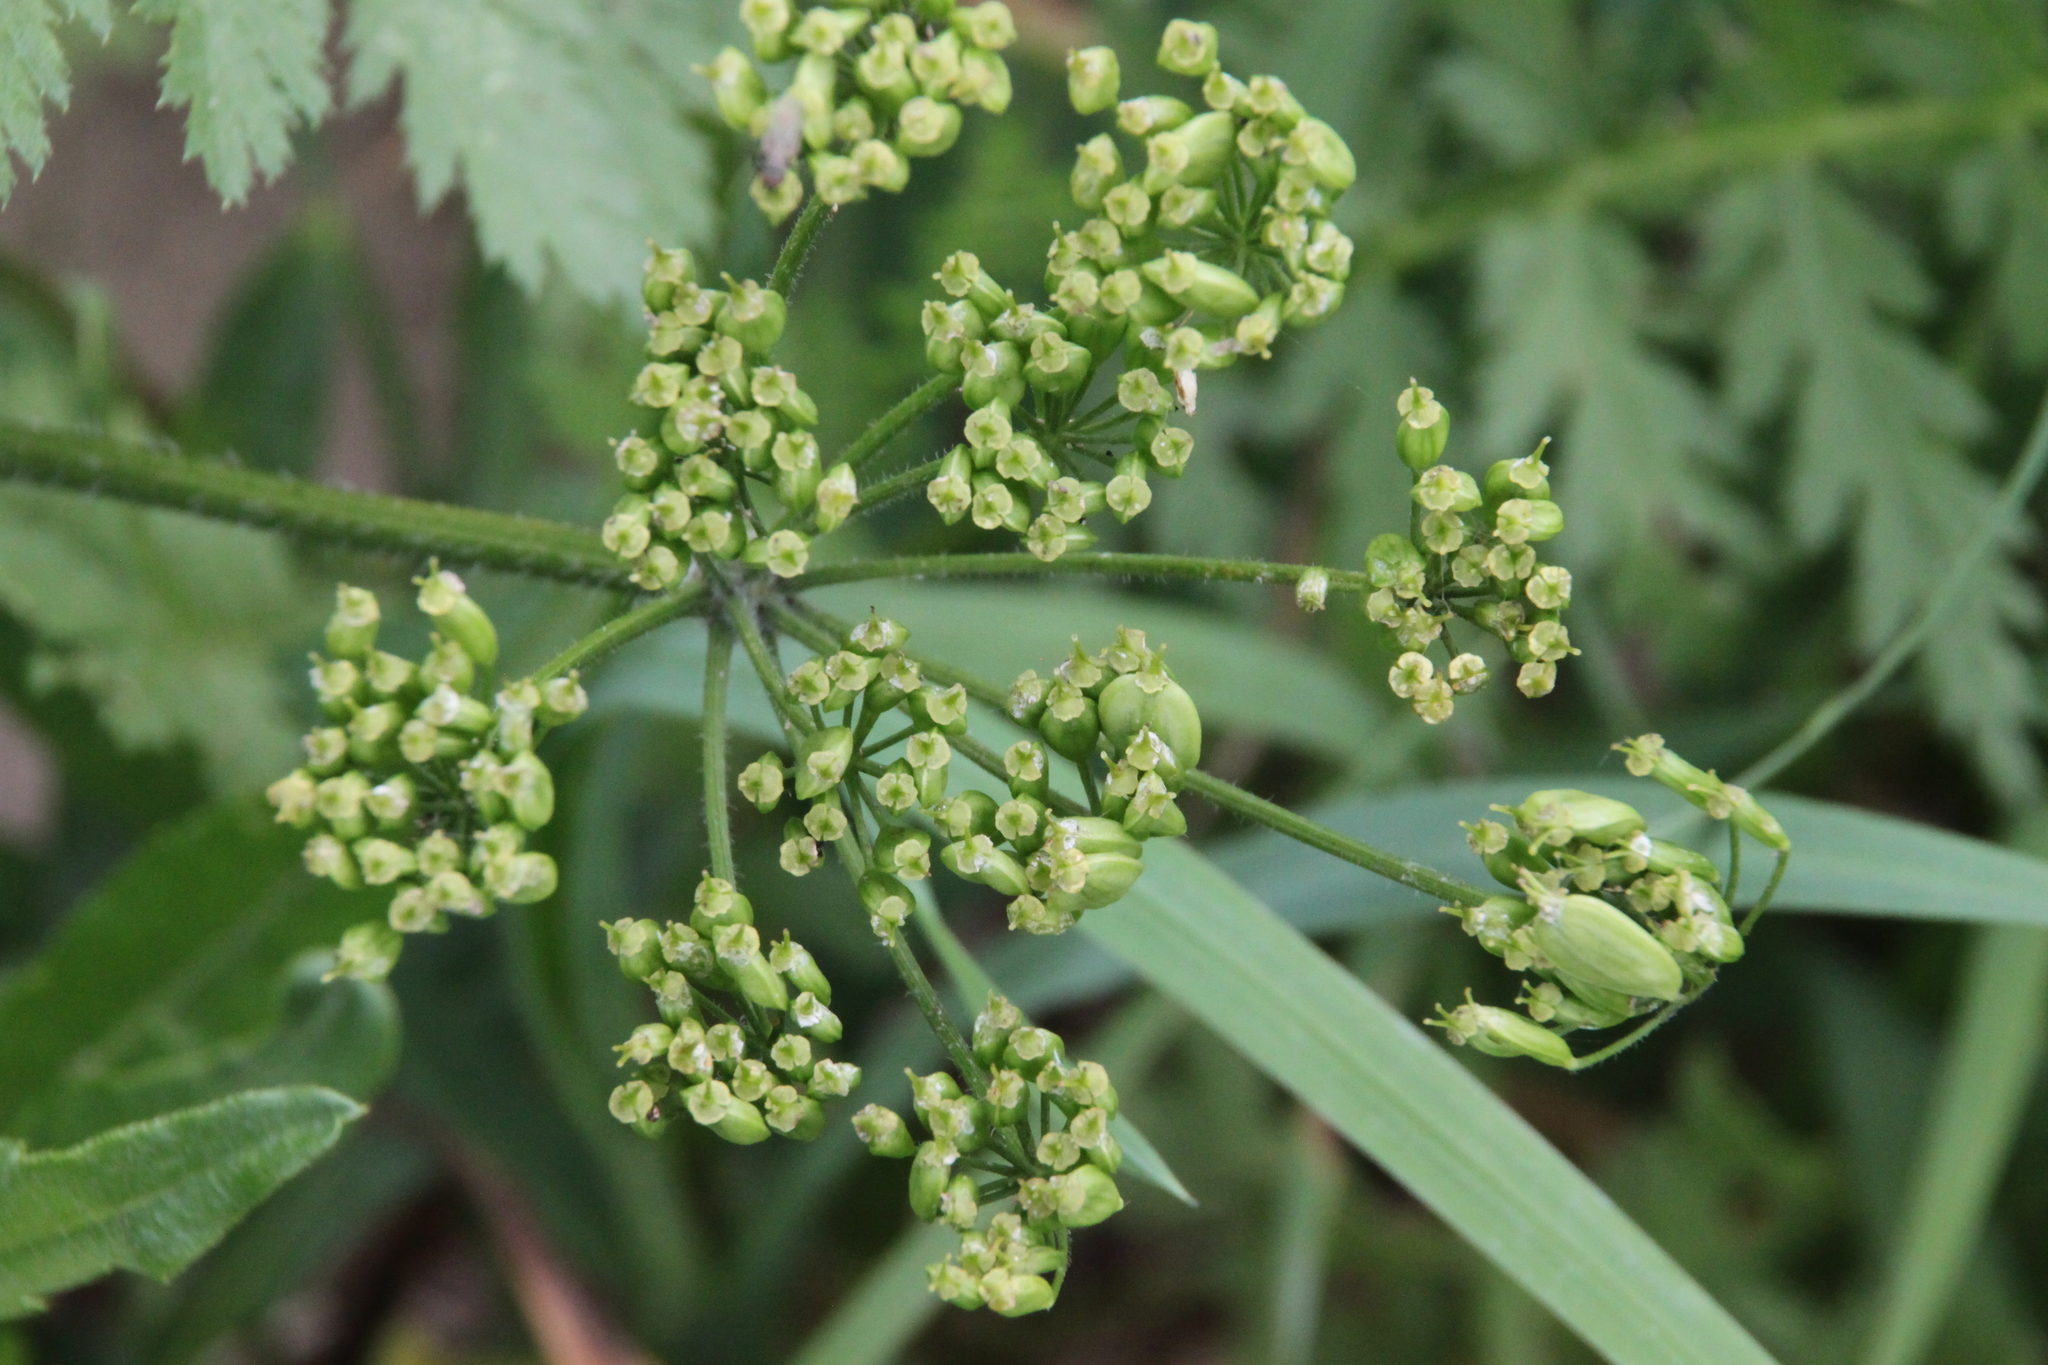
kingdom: Plantae
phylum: Tracheophyta
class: Magnoliopsida
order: Apiales
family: Apiaceae
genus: Heracleum
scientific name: Heracleum sphondylium
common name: Hogweed
